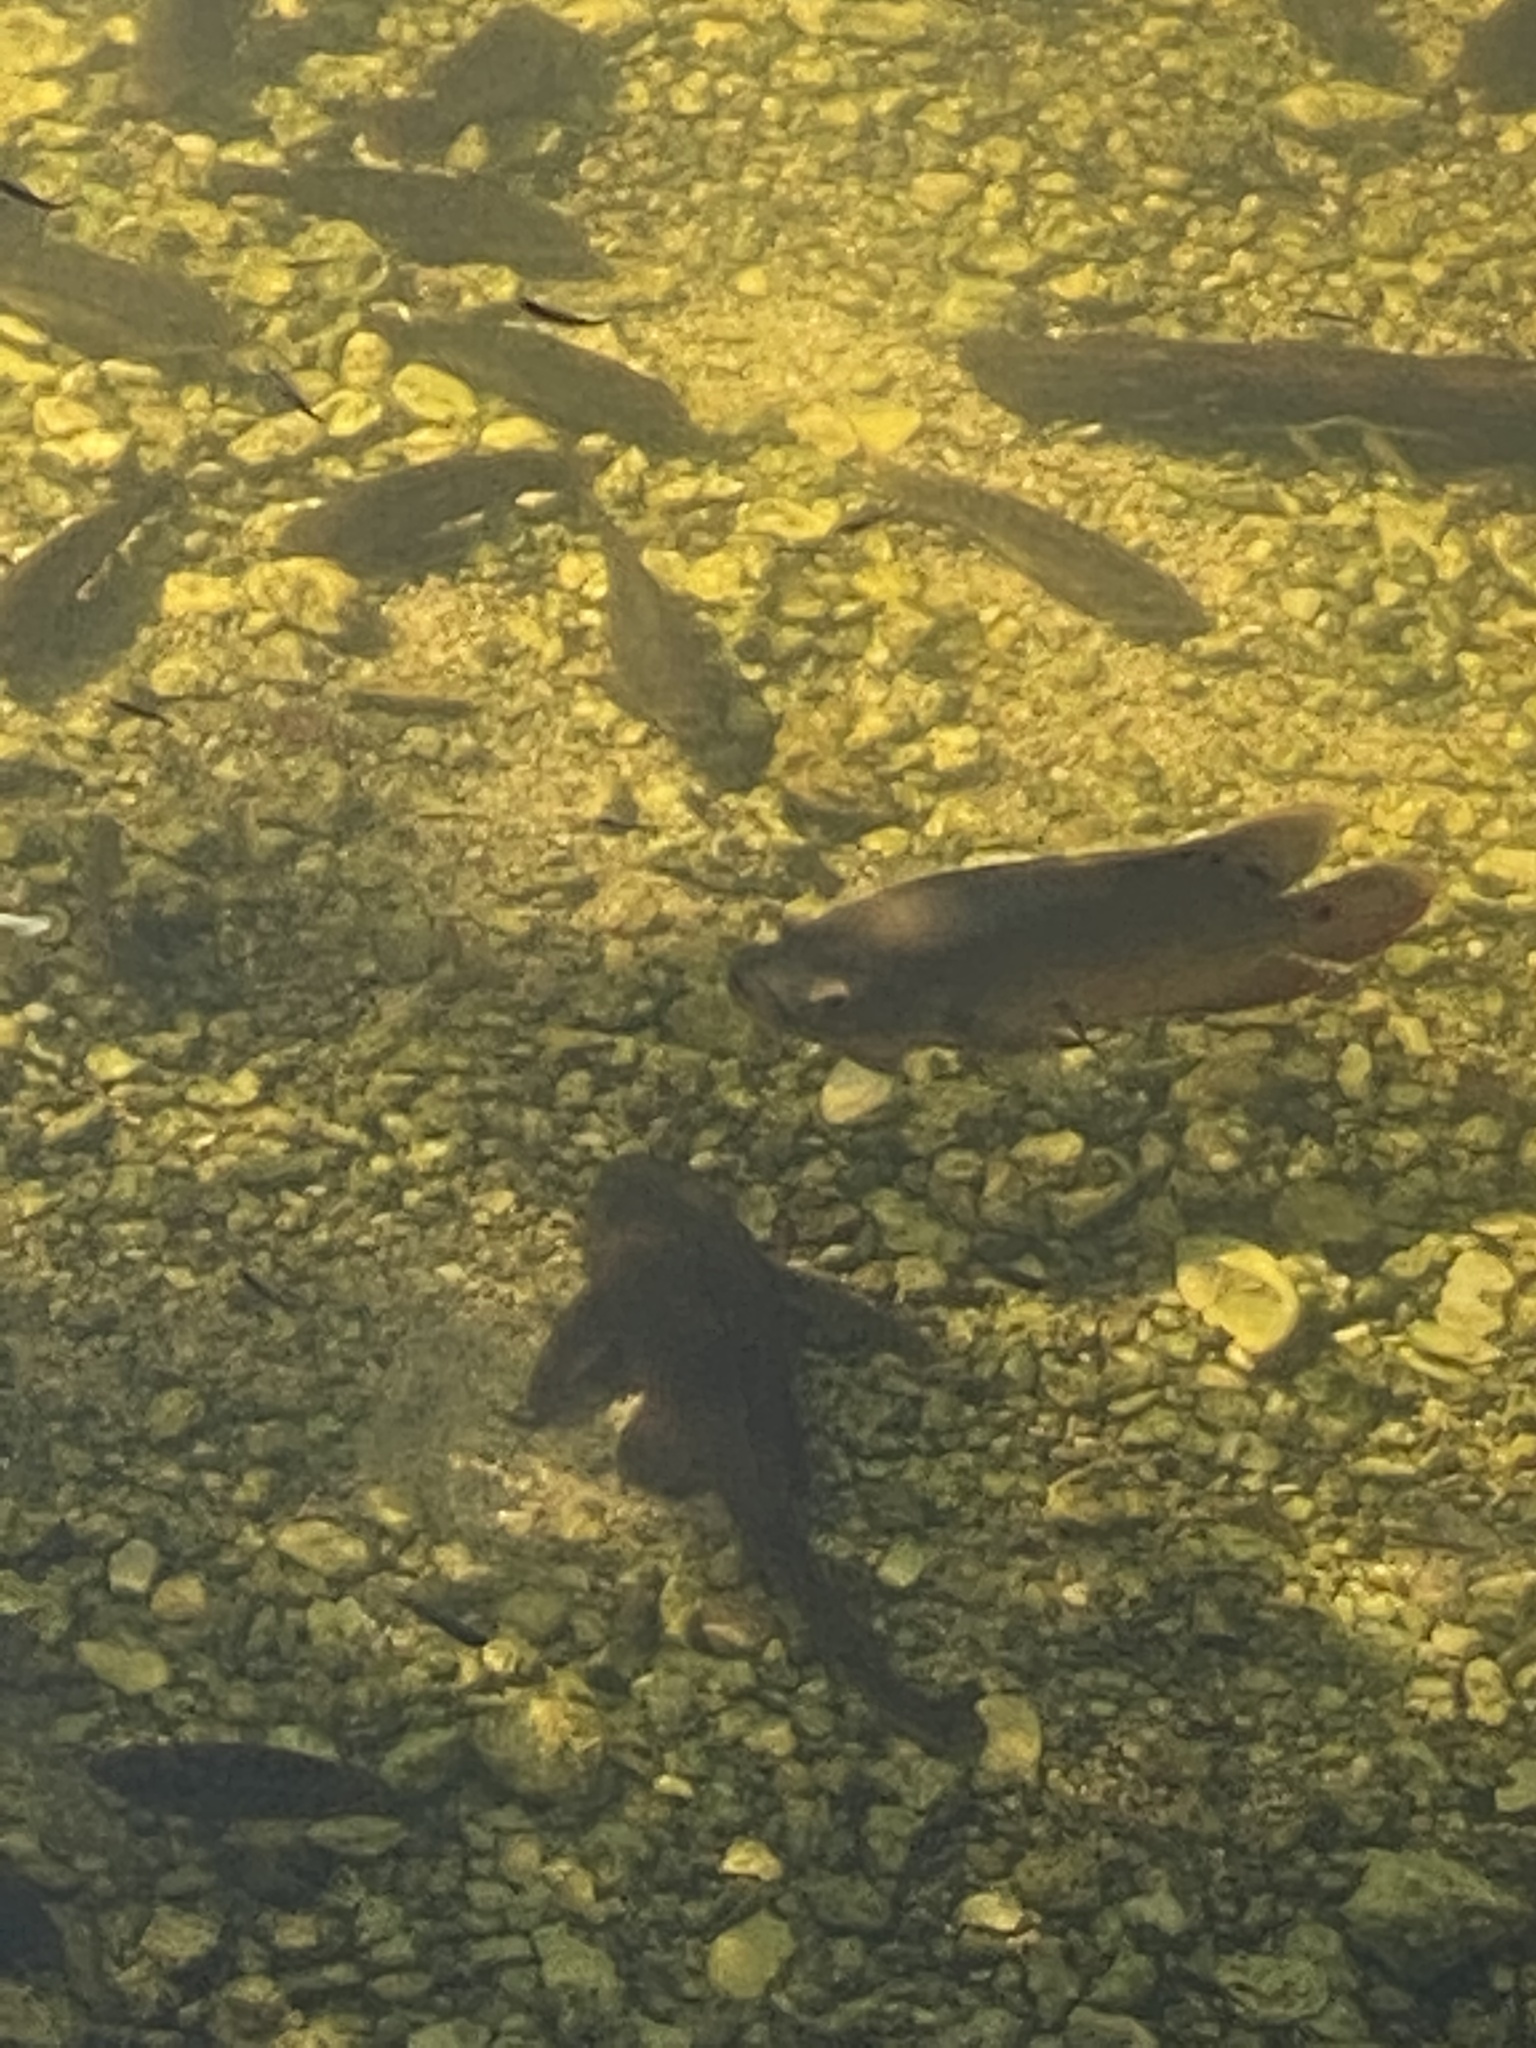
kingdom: Animalia
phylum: Chordata
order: Perciformes
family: Cichlidae
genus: Astronotus
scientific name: Astronotus ocellatus
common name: Oscar
